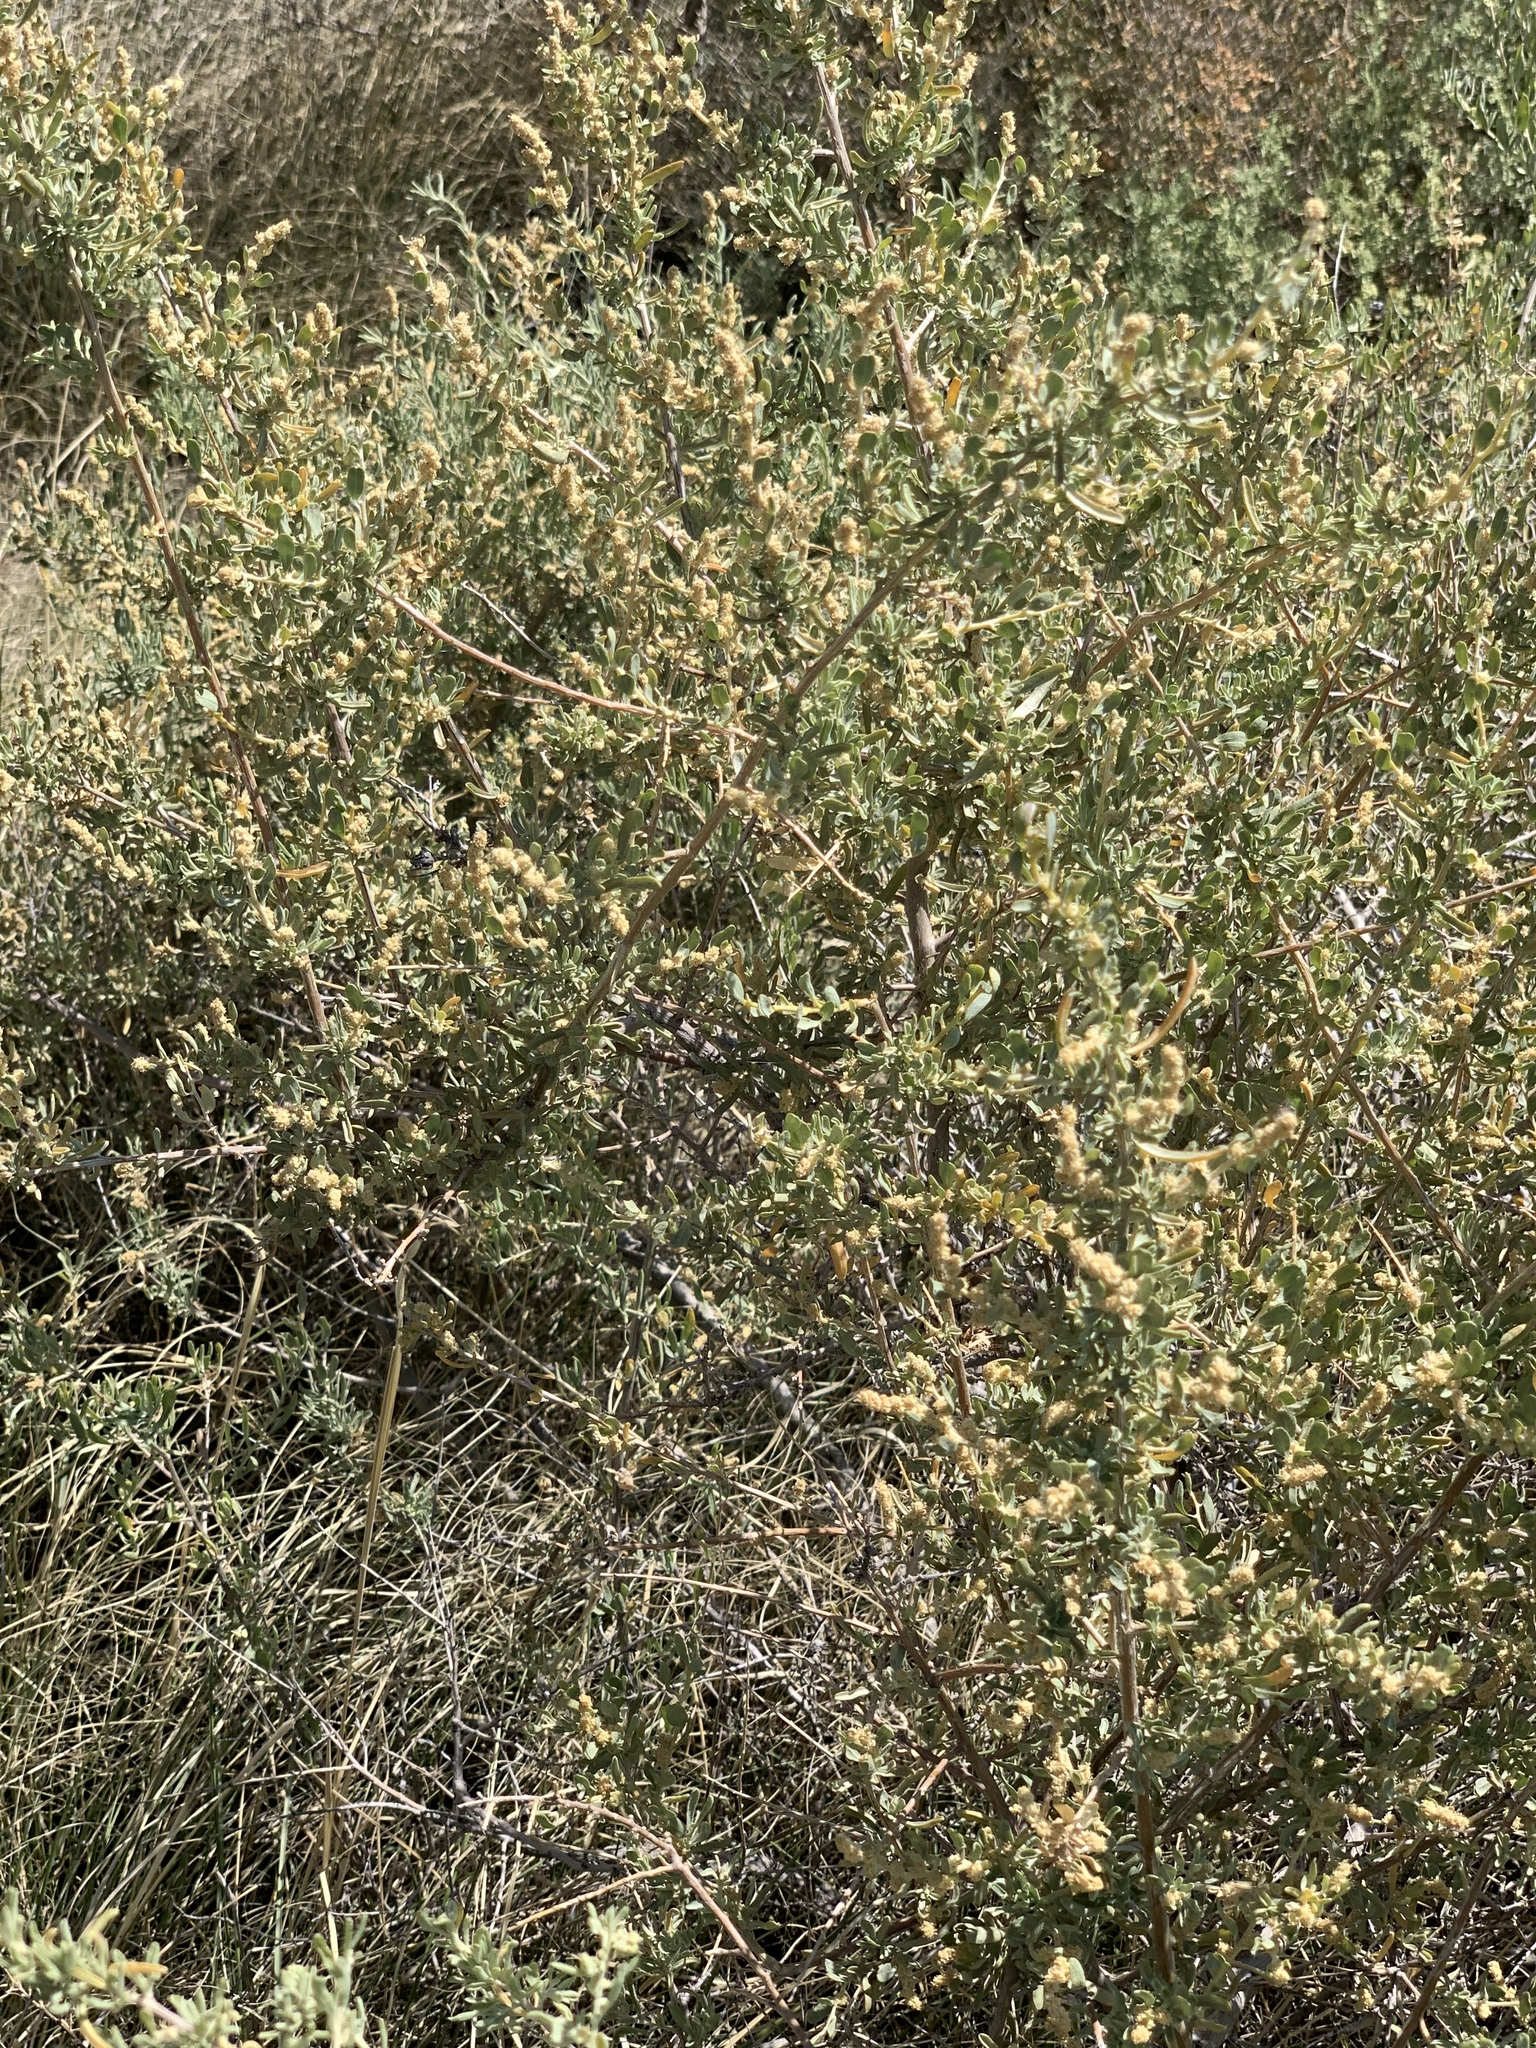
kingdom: Plantae
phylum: Tracheophyta
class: Magnoliopsida
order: Caryophyllales
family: Amaranthaceae
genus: Atriplex
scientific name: Atriplex canescens
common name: Four-wing saltbush
